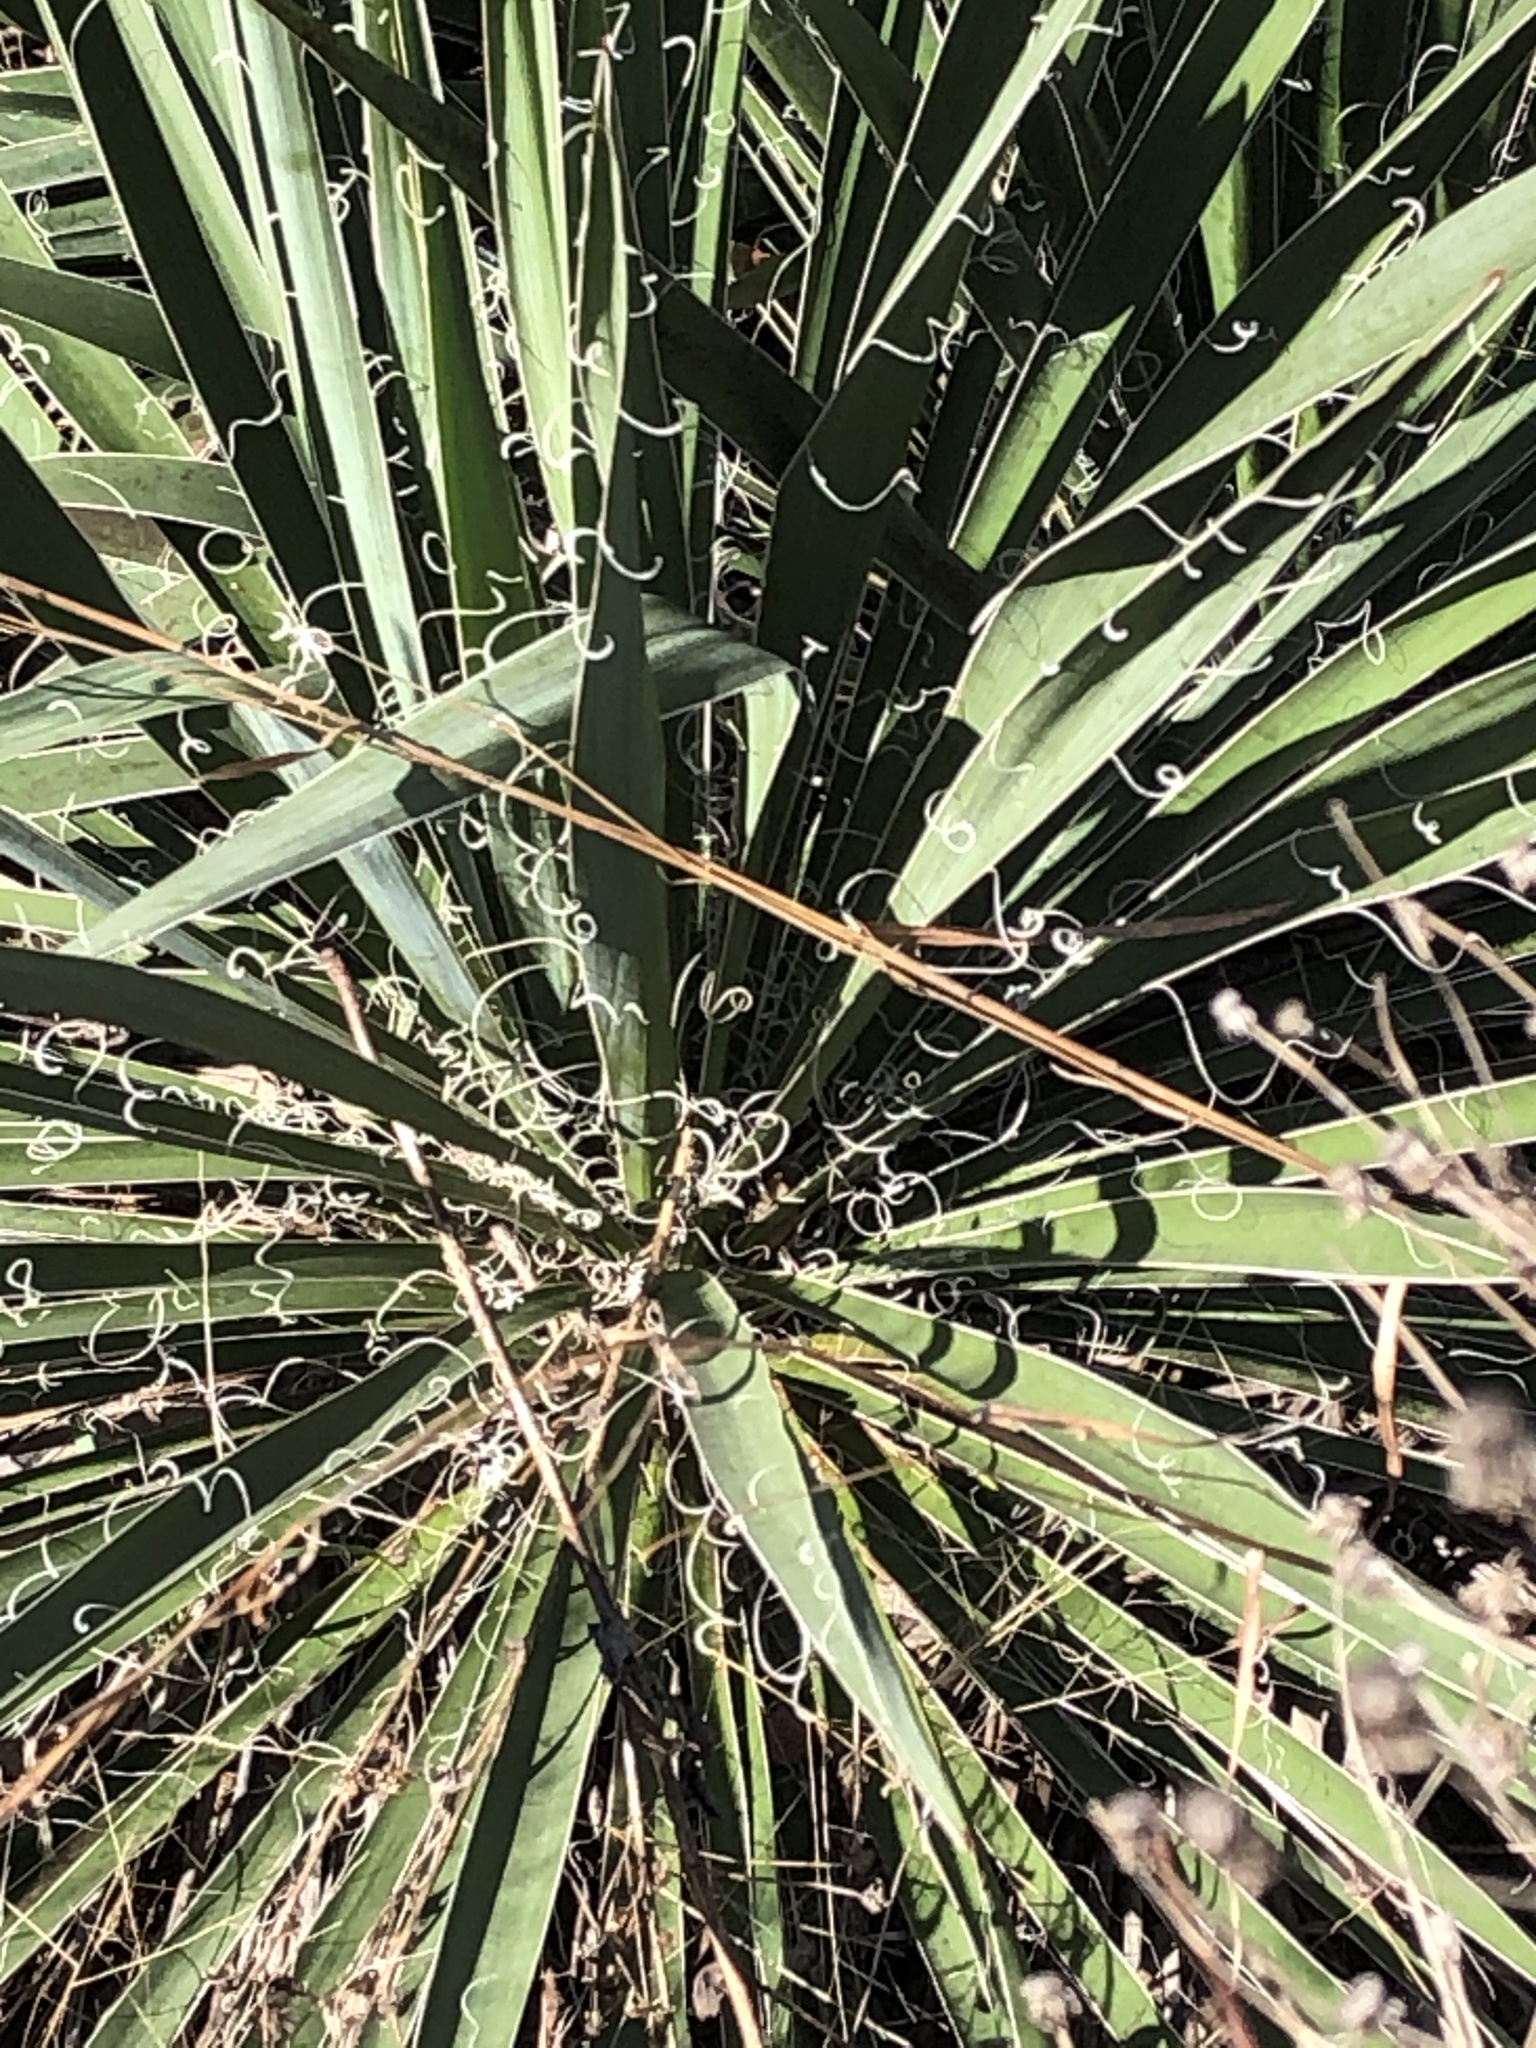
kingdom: Plantae
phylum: Tracheophyta
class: Liliopsida
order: Asparagales
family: Asparagaceae
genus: Yucca
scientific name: Yucca flaccida
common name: Adam's-needle
